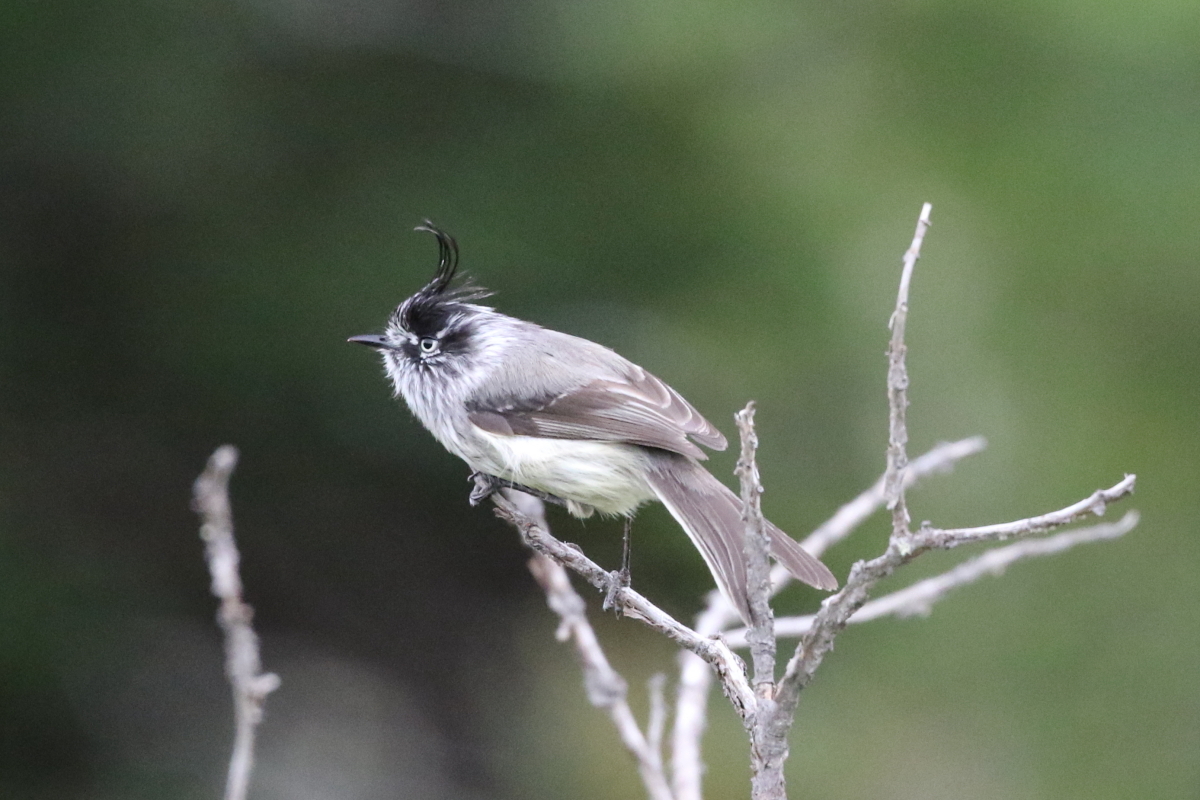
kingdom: Animalia
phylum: Chordata
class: Aves
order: Passeriformes
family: Tyrannidae
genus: Anairetes
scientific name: Anairetes parulus
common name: Tufted tit-tyrant
